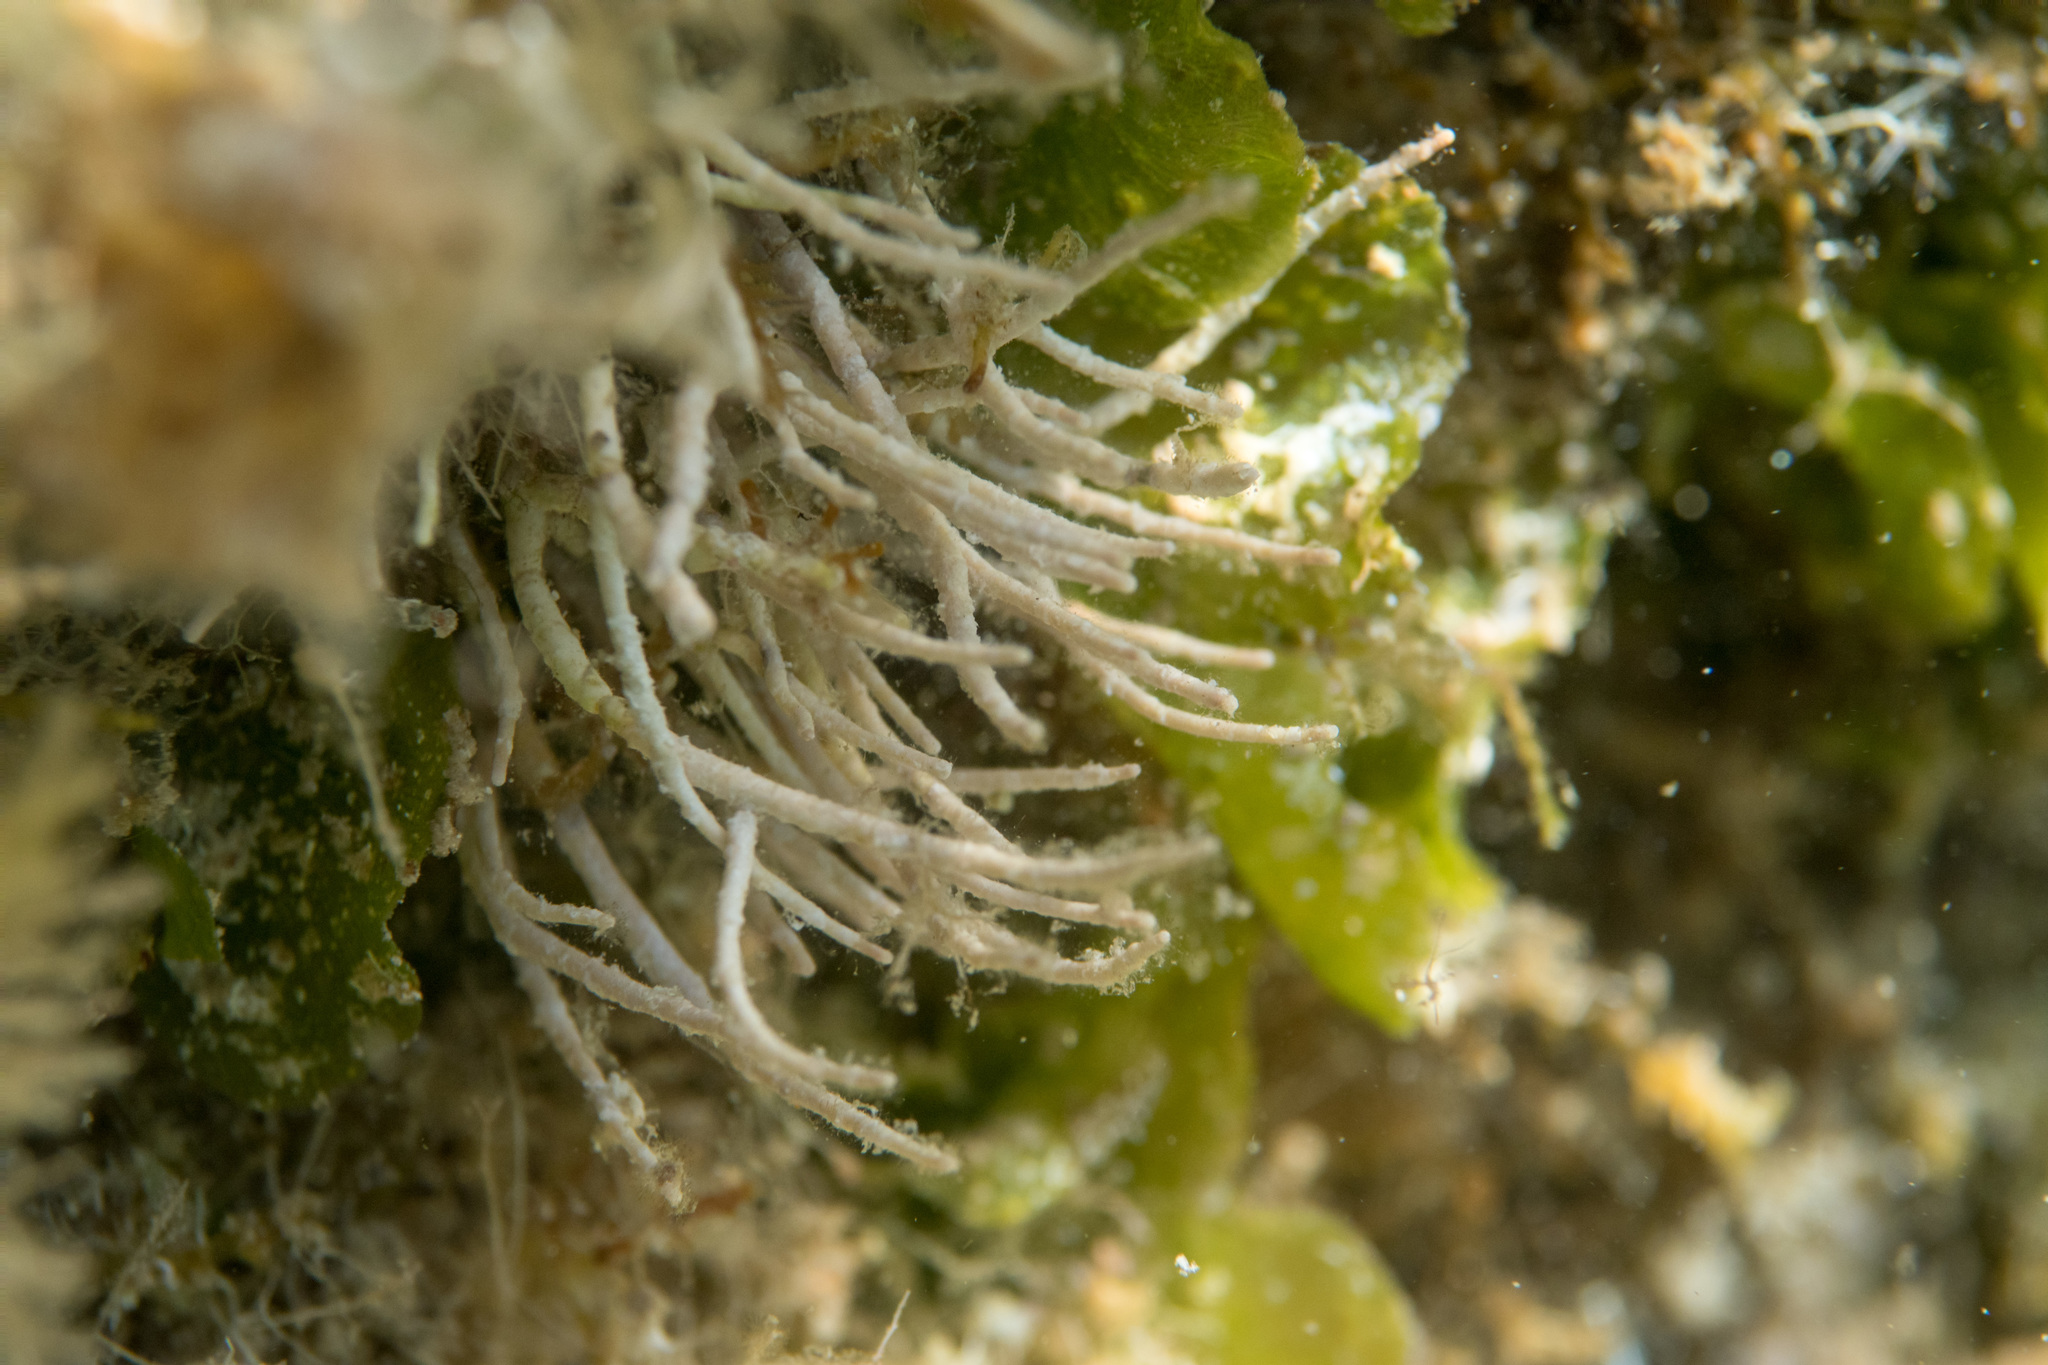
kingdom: Plantae
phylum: Rhodophyta
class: Florideophyceae
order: Corallinales
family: Lithophyllaceae
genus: Amphiroa
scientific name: Amphiroa rigida
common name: Y-twig algae
